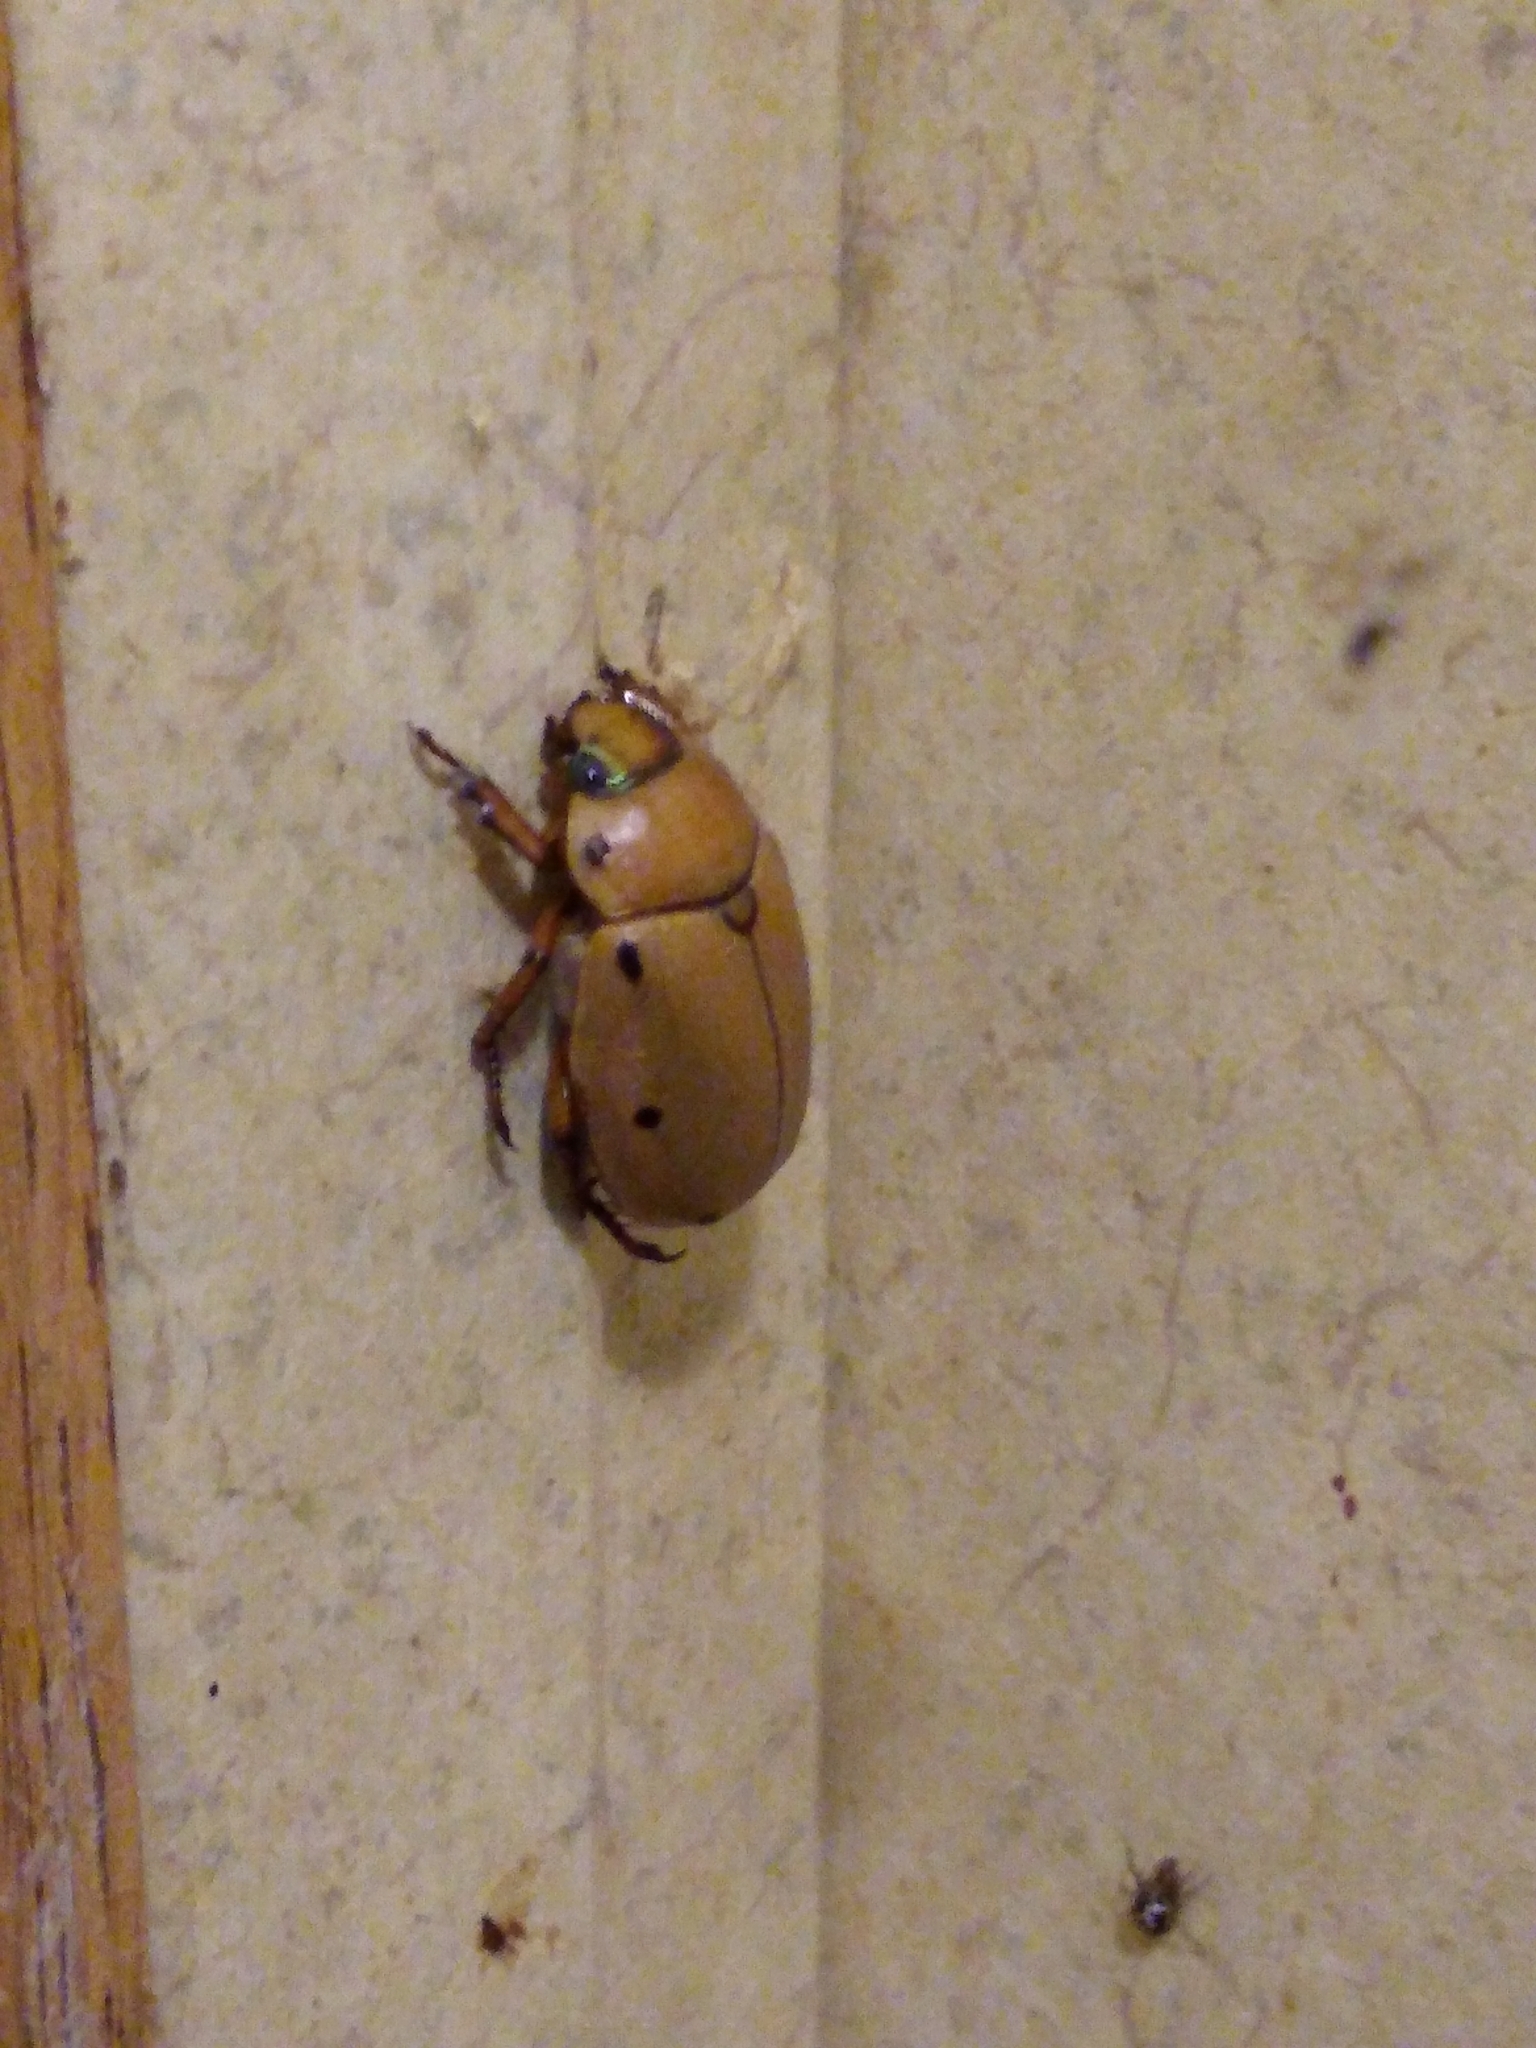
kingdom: Animalia
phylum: Arthropoda
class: Insecta
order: Coleoptera
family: Scarabaeidae
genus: Pelidnota
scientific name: Pelidnota punctata
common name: Grapevine beetle
